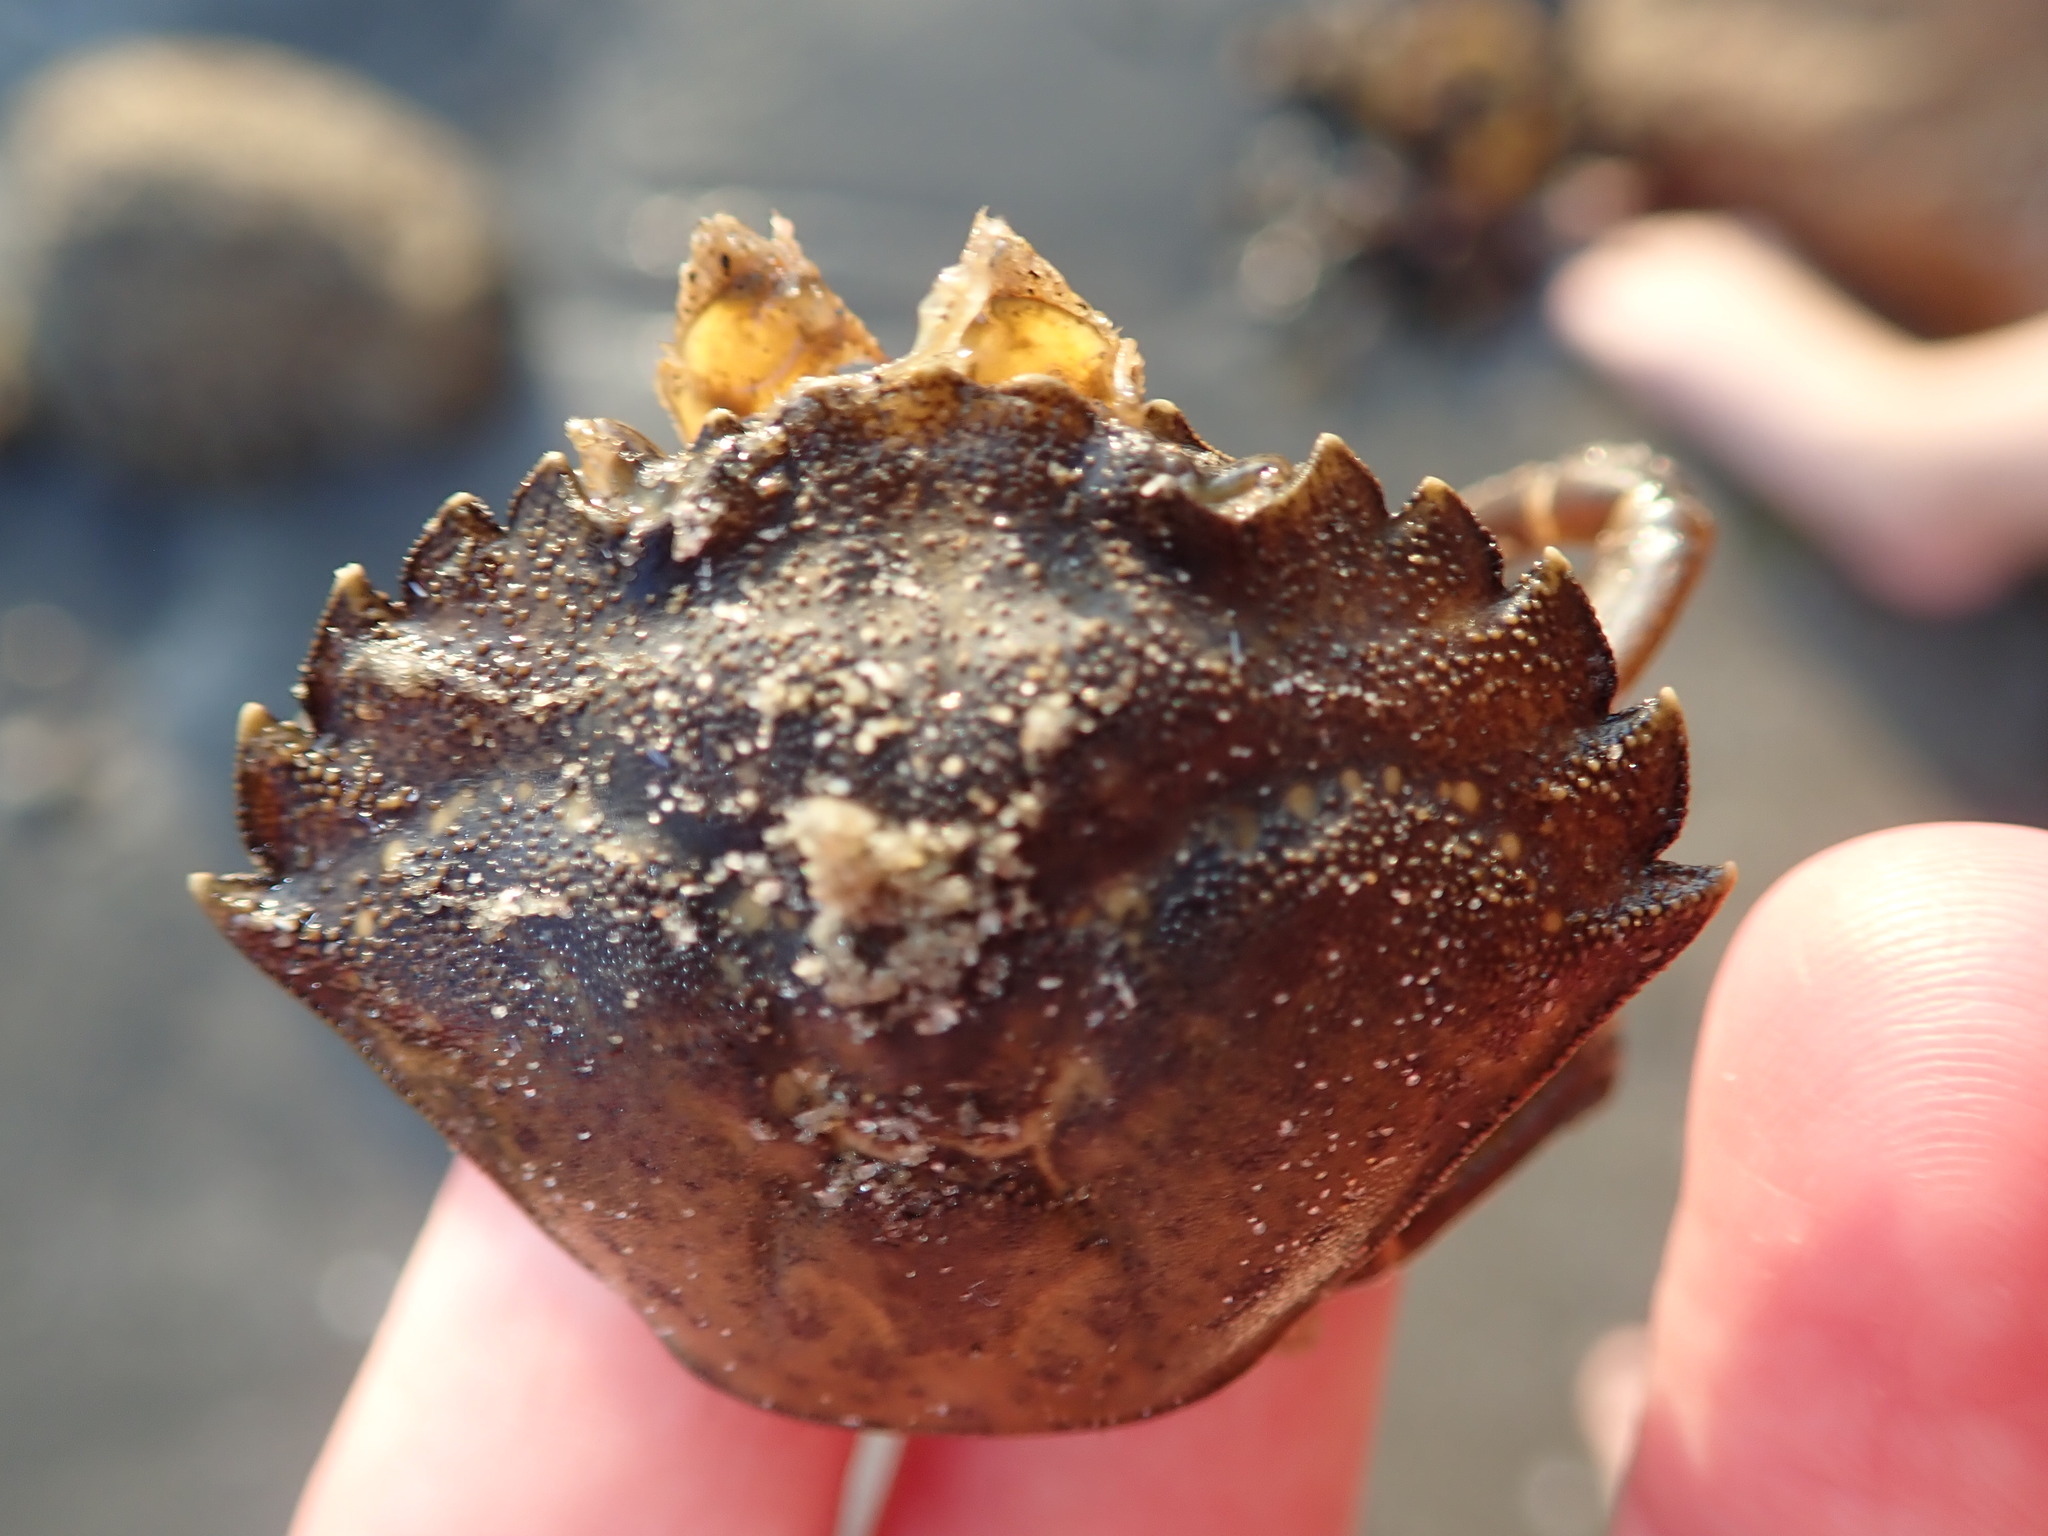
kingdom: Animalia
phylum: Arthropoda
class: Malacostraca
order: Decapoda
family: Carcinidae
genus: Carcinus
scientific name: Carcinus maenas
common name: European green crab
